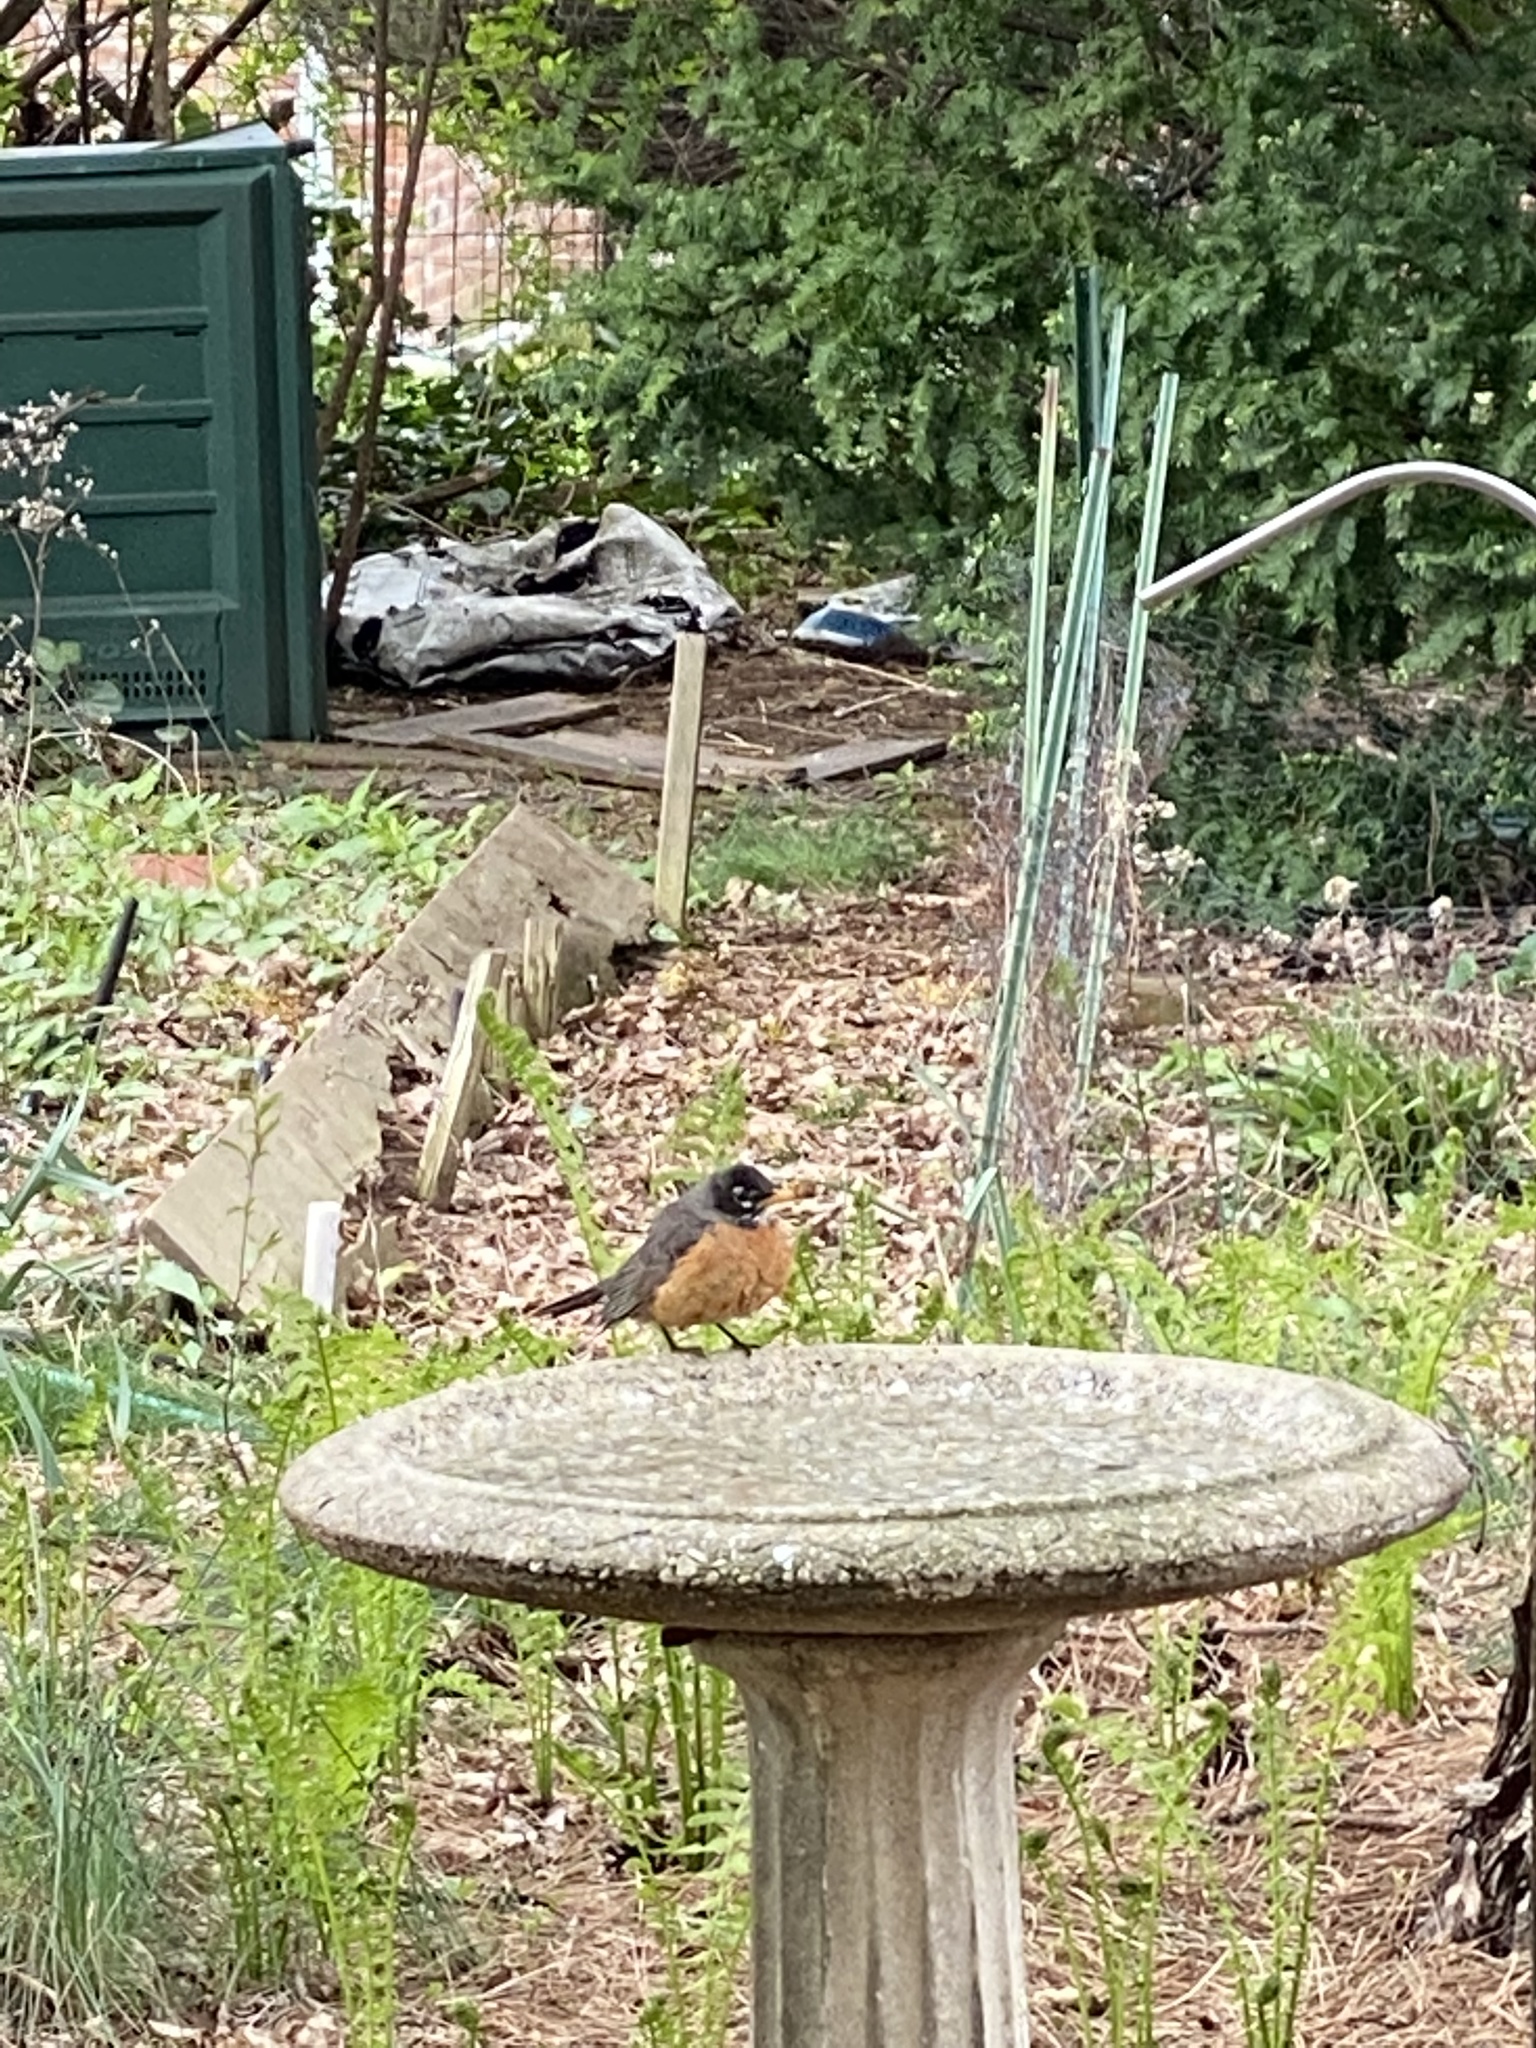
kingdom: Animalia
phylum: Chordata
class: Aves
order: Passeriformes
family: Turdidae
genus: Turdus
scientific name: Turdus migratorius
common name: American robin
